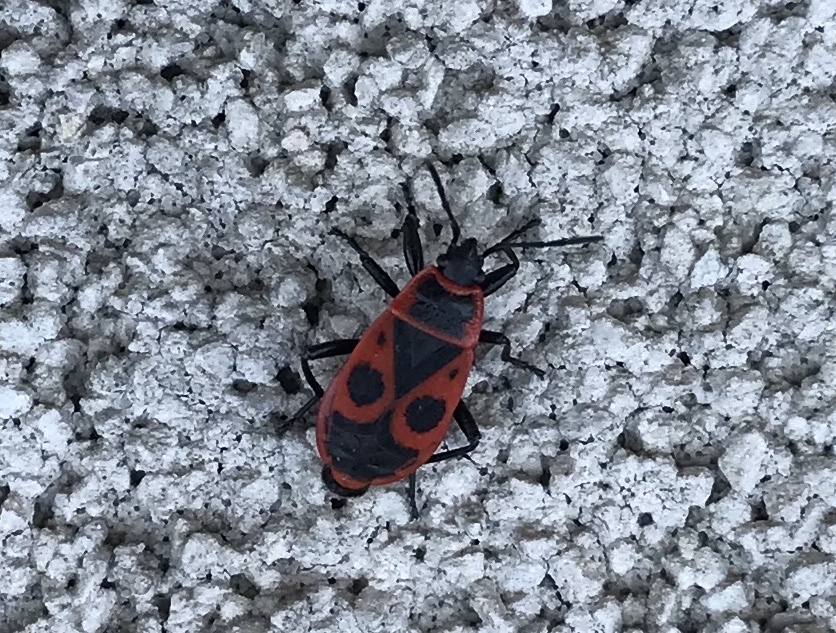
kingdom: Animalia
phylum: Arthropoda
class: Insecta
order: Hemiptera
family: Pyrrhocoridae
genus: Pyrrhocoris
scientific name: Pyrrhocoris apterus
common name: Firebug
